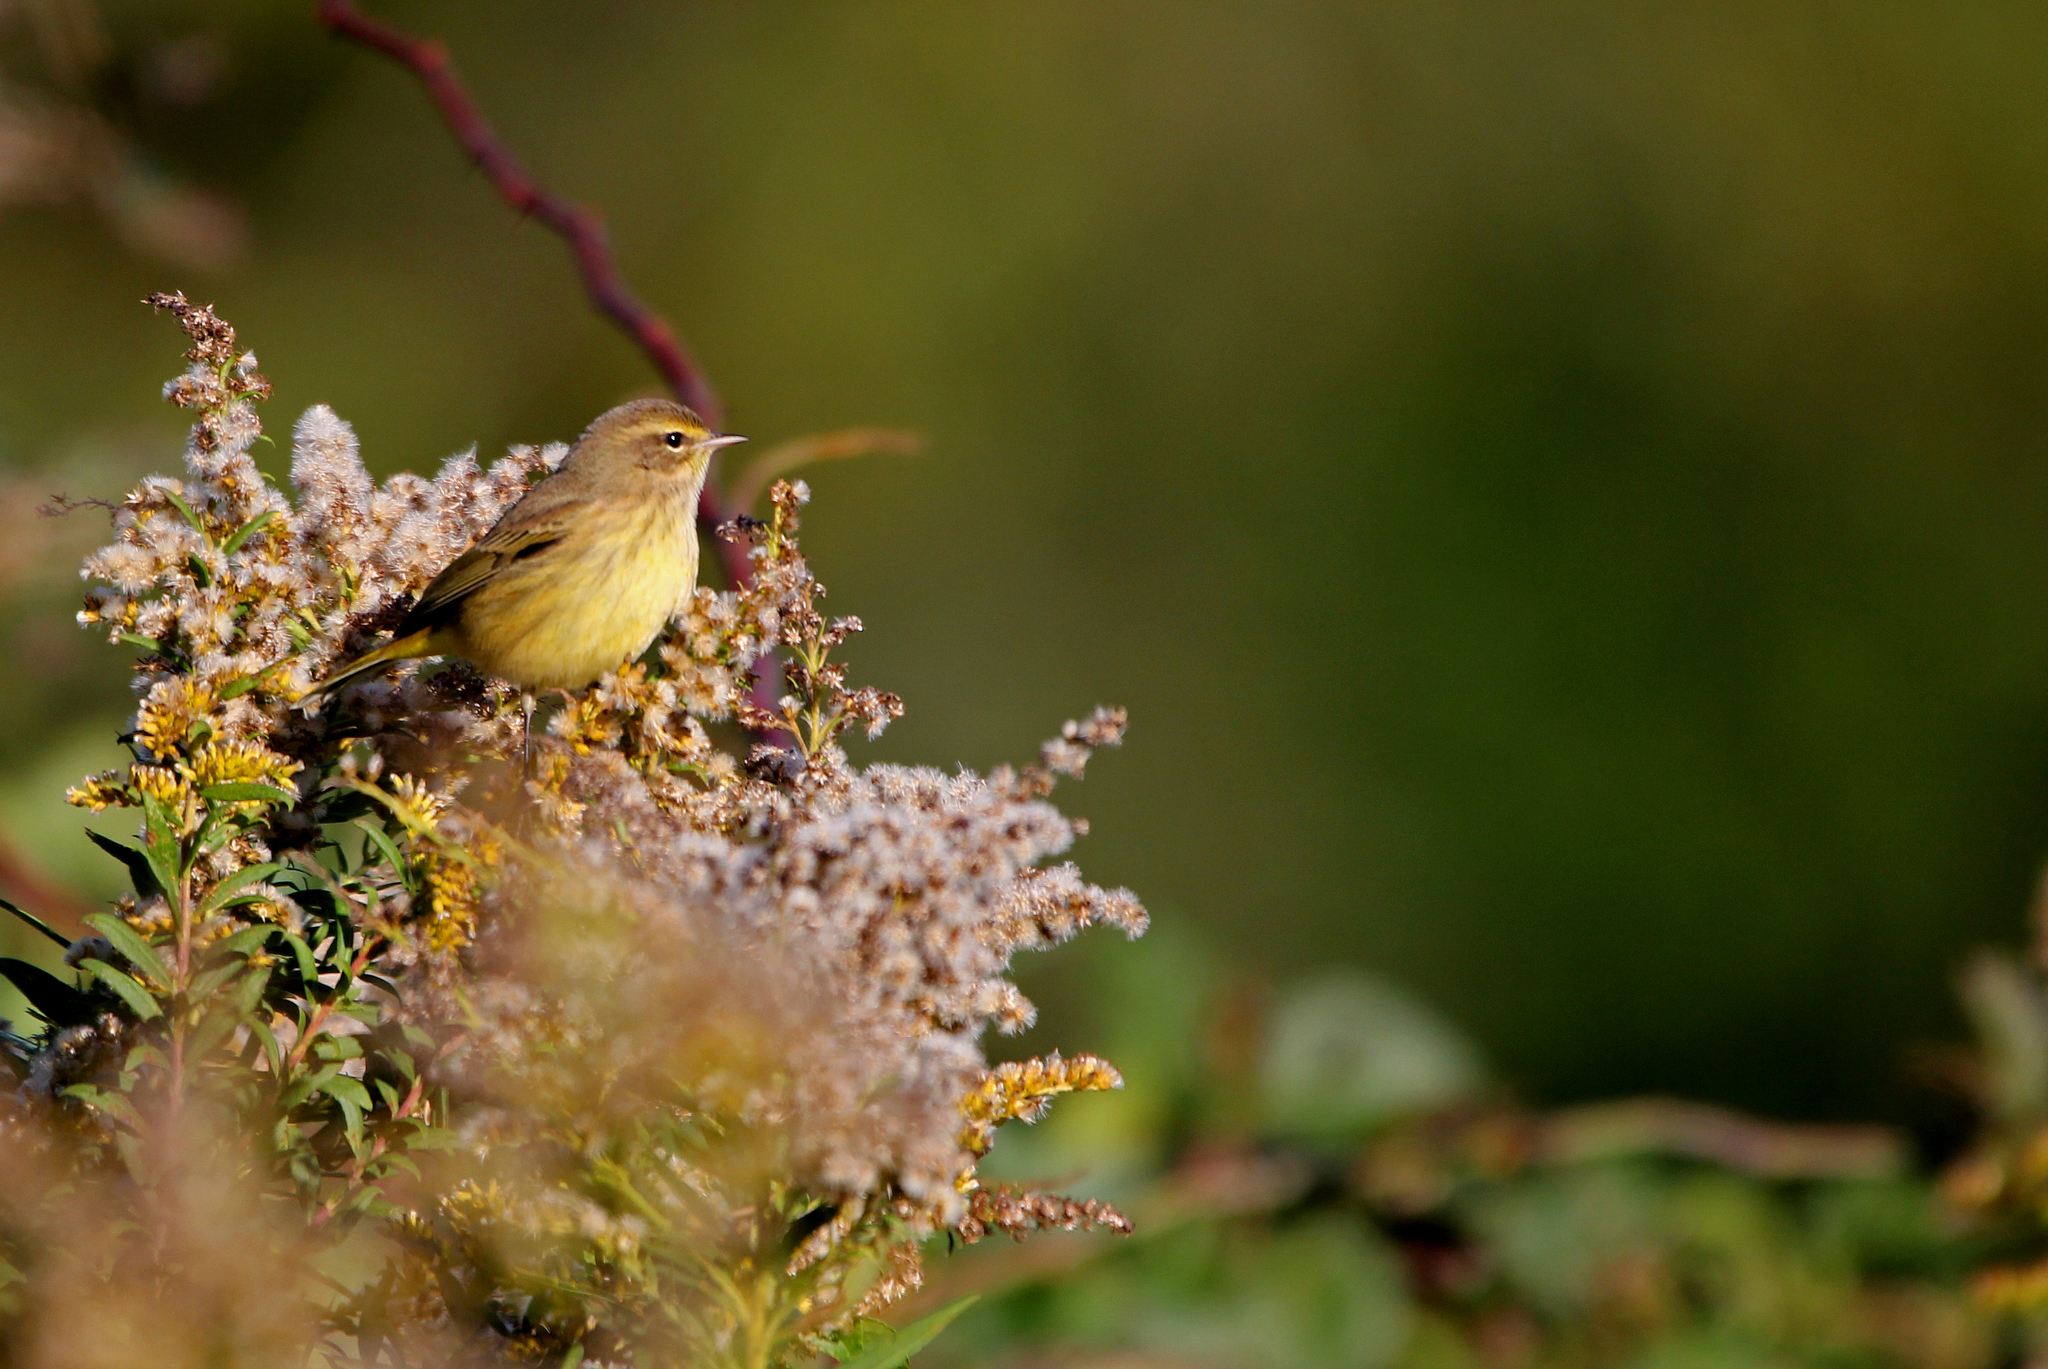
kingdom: Animalia
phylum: Chordata
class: Aves
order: Passeriformes
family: Parulidae
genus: Setophaga
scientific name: Setophaga palmarum
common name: Palm warbler
